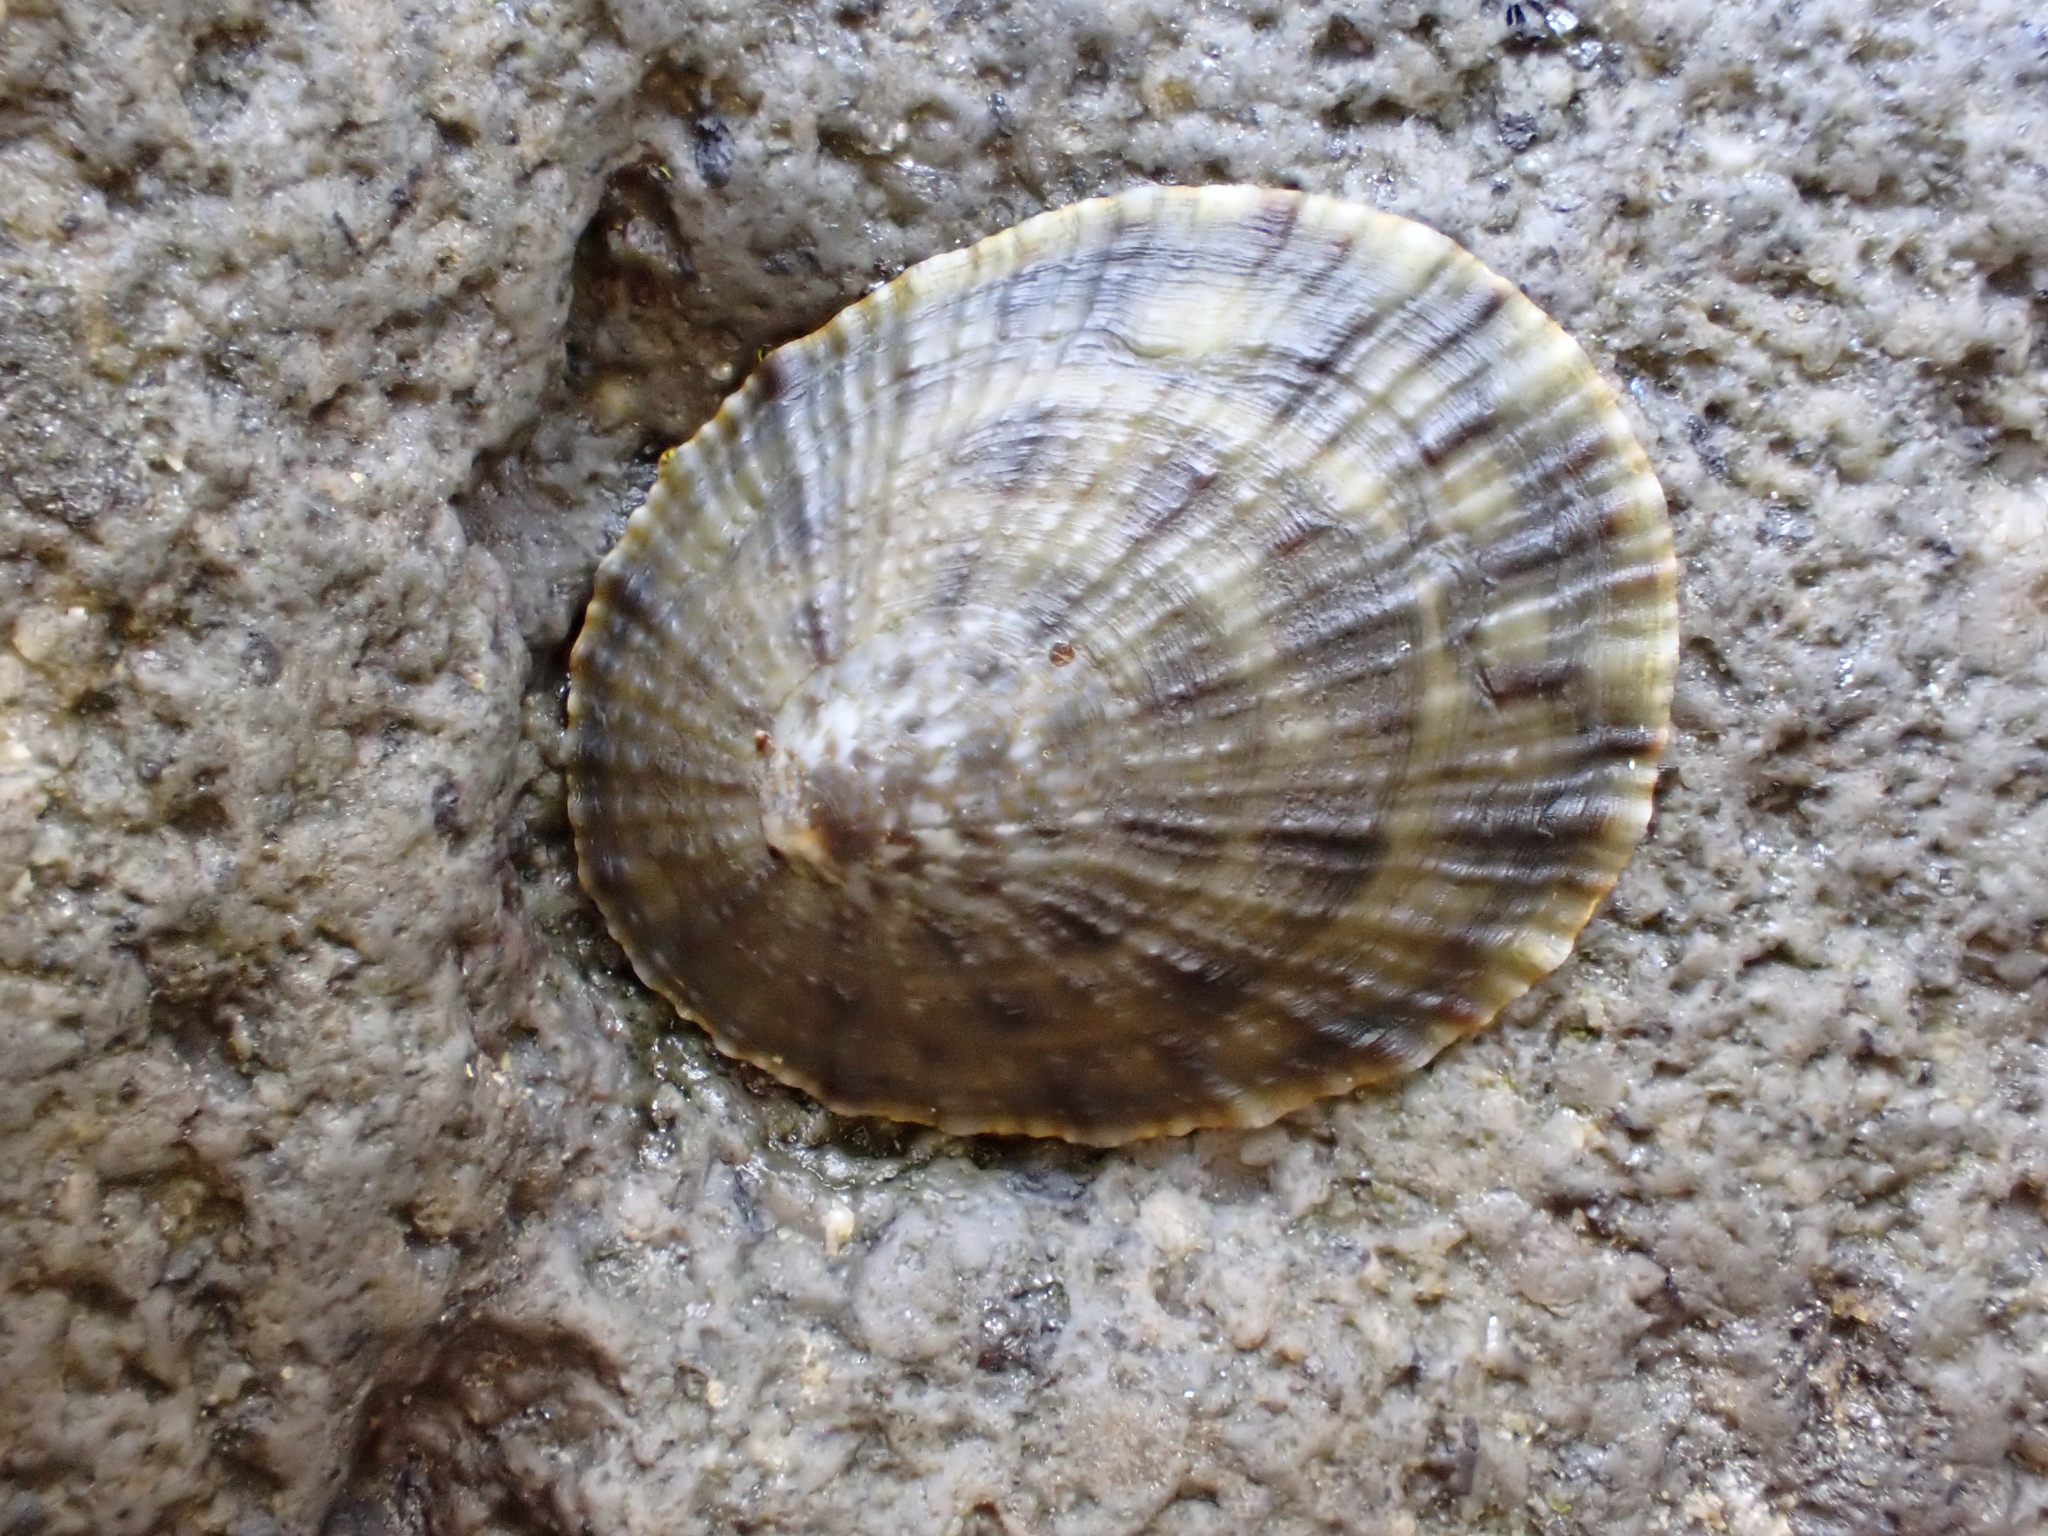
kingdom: Animalia
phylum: Mollusca
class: Gastropoda
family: Nacellidae
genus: Cellana
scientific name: Cellana radians
